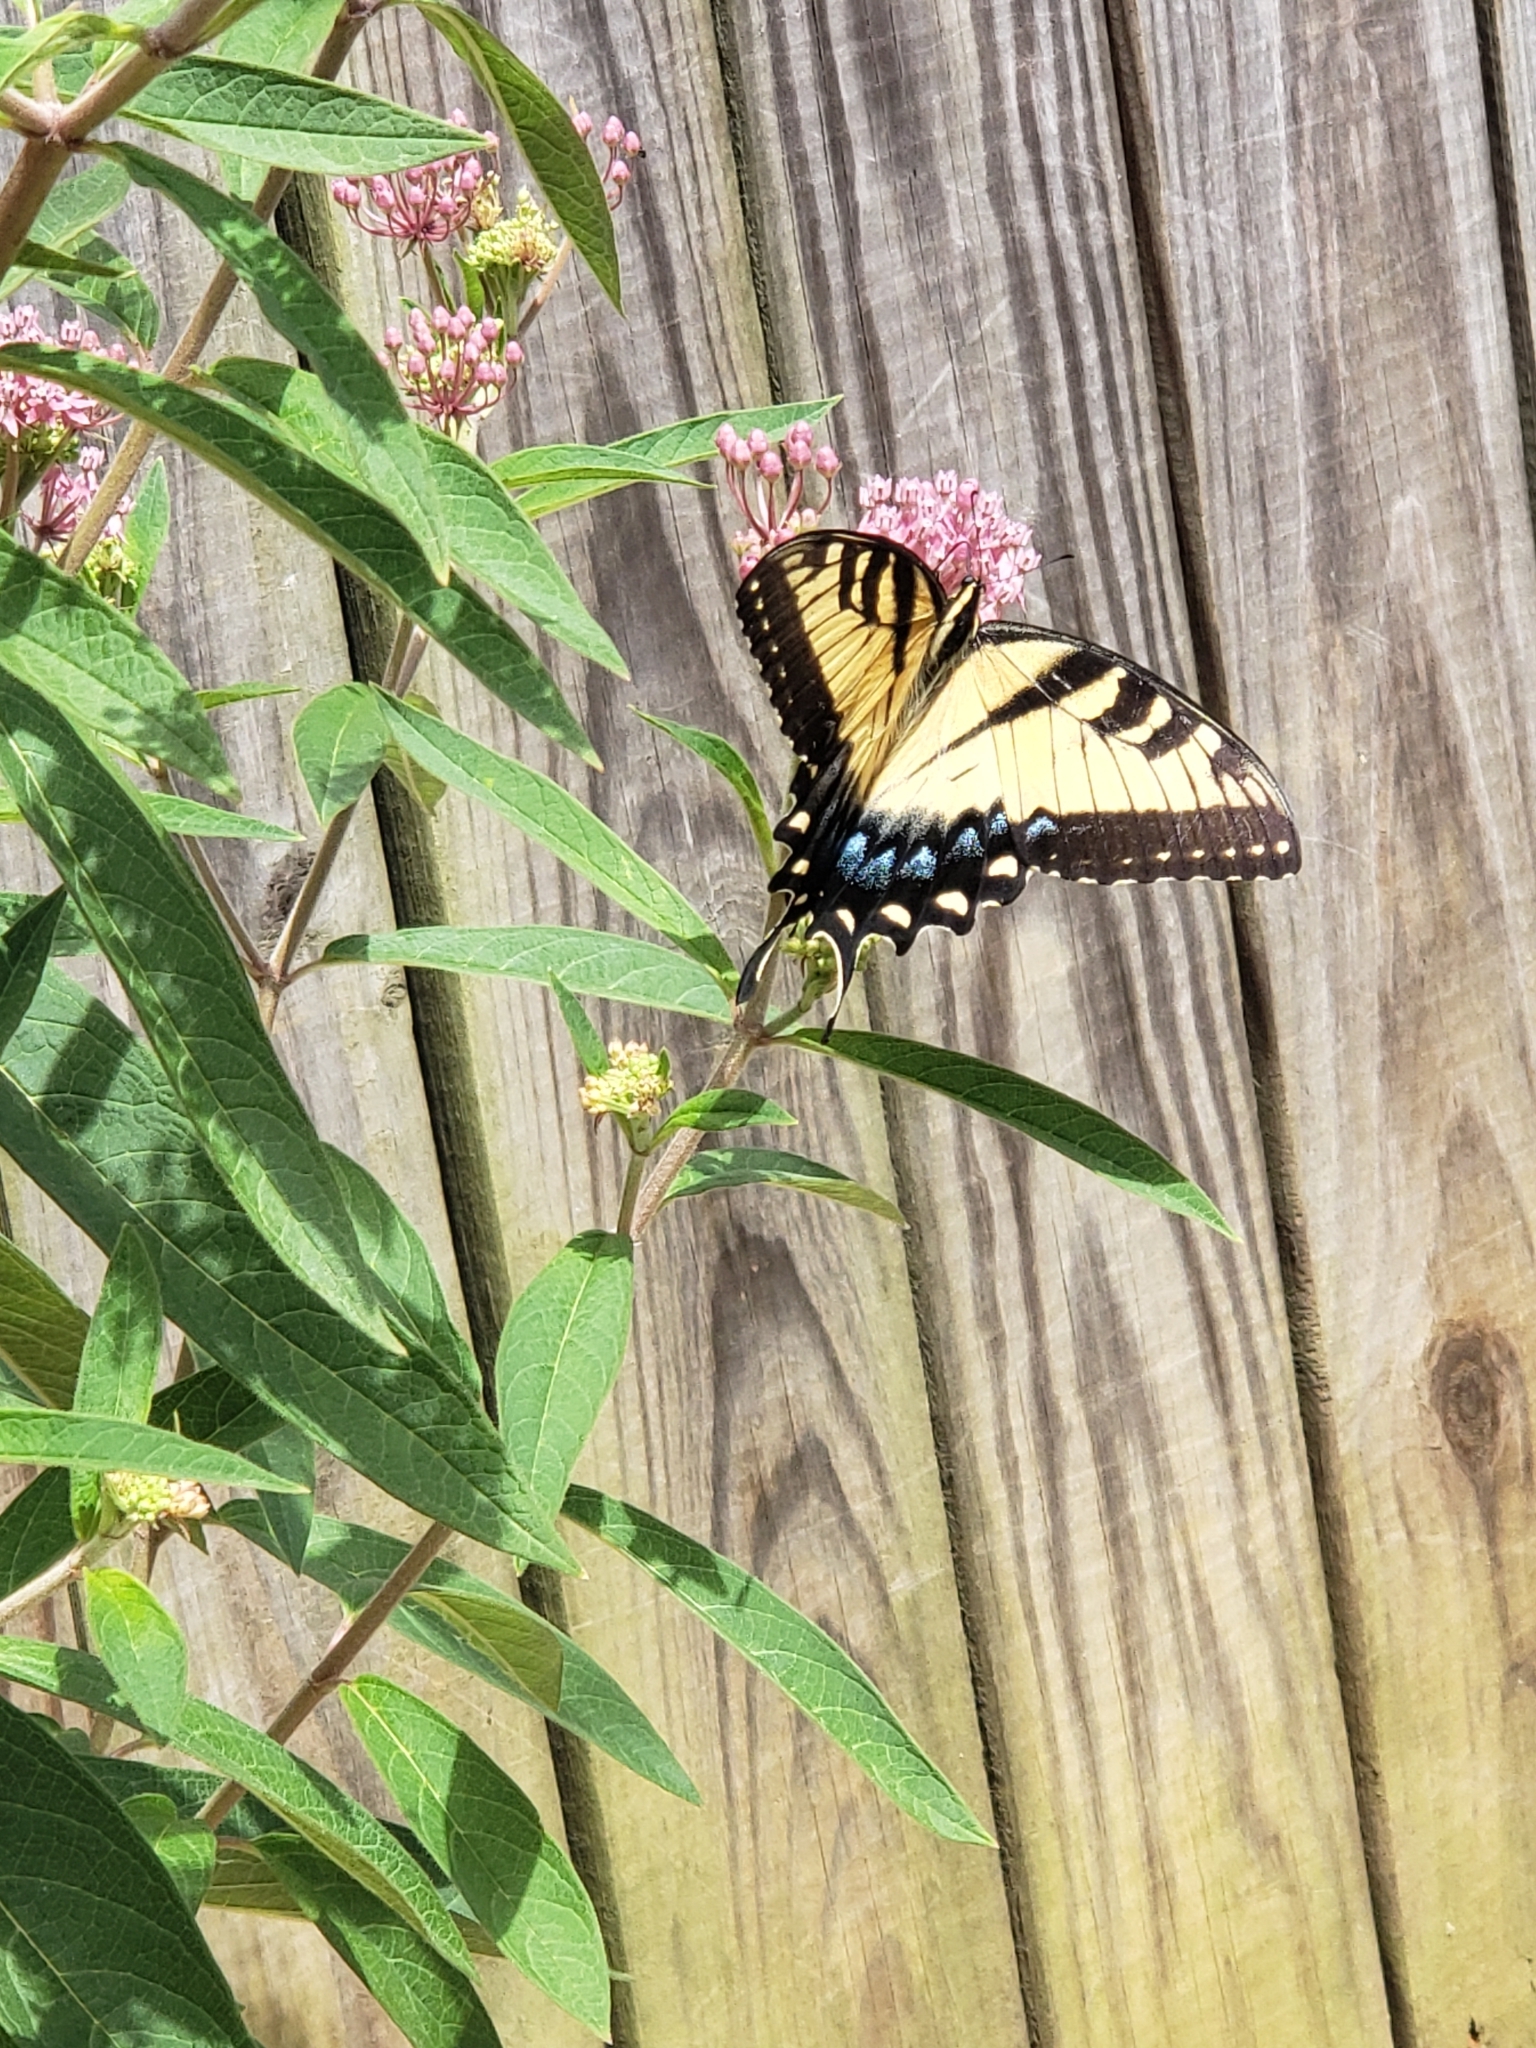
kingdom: Animalia
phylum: Arthropoda
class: Insecta
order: Lepidoptera
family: Papilionidae
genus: Papilio
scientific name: Papilio glaucus
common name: Tiger swallowtail
